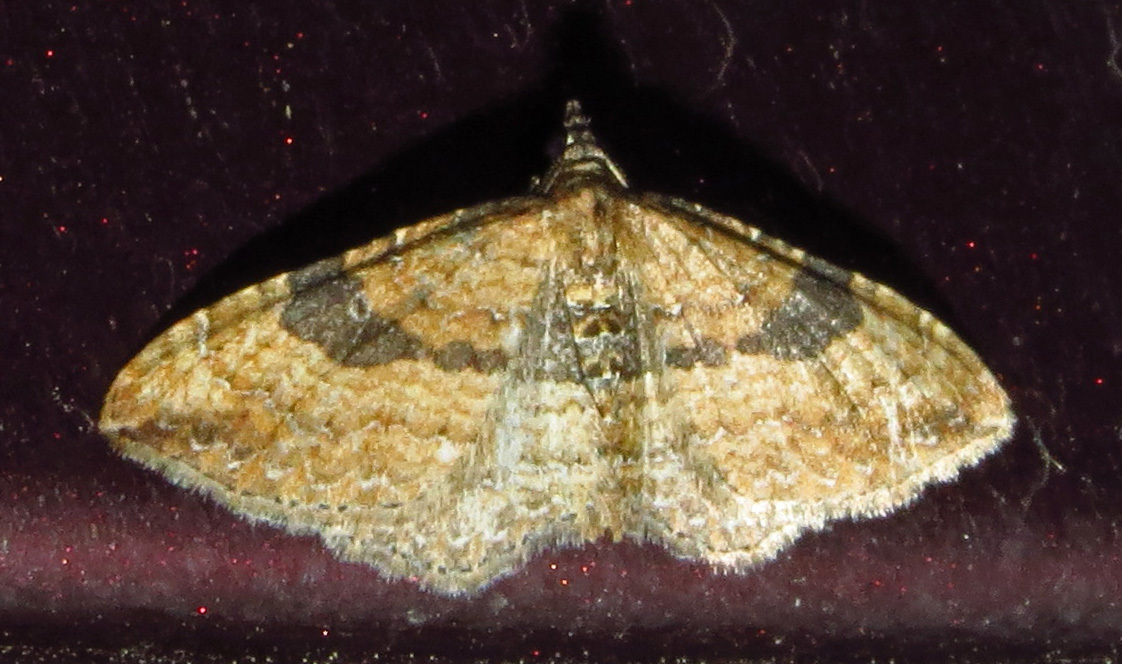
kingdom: Animalia
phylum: Arthropoda
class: Insecta
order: Lepidoptera
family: Geometridae
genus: Orthonama
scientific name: Orthonama obstipata
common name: The gem
